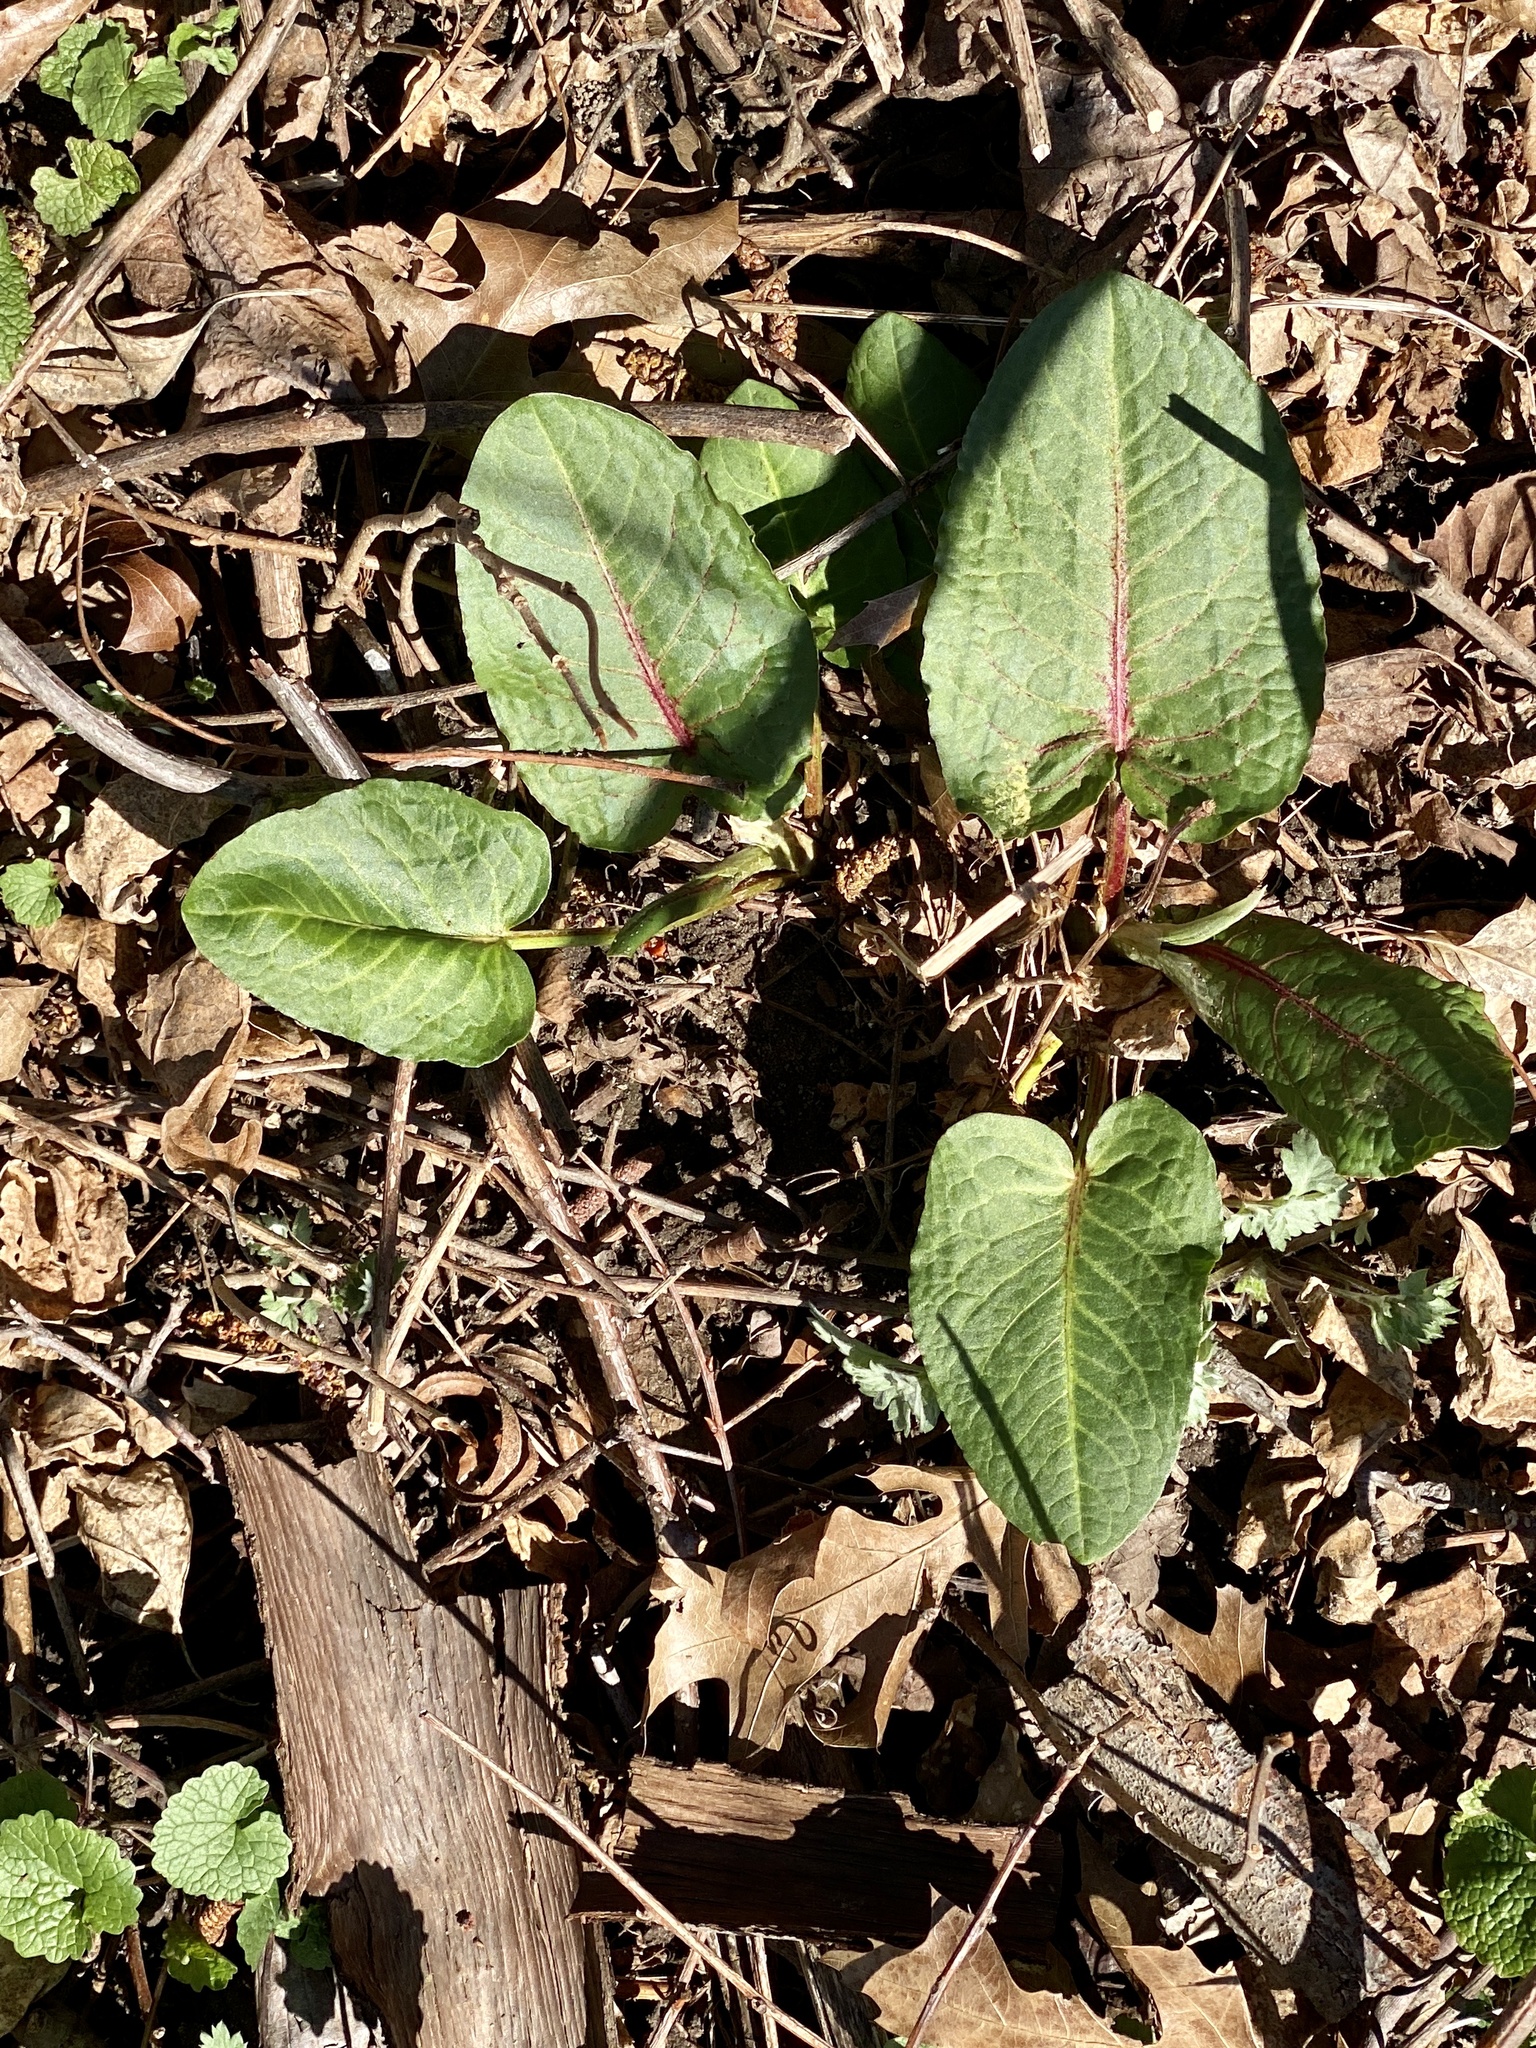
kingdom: Plantae
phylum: Tracheophyta
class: Magnoliopsida
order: Caryophyllales
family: Polygonaceae
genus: Rumex
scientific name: Rumex obtusifolius
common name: Bitter dock
